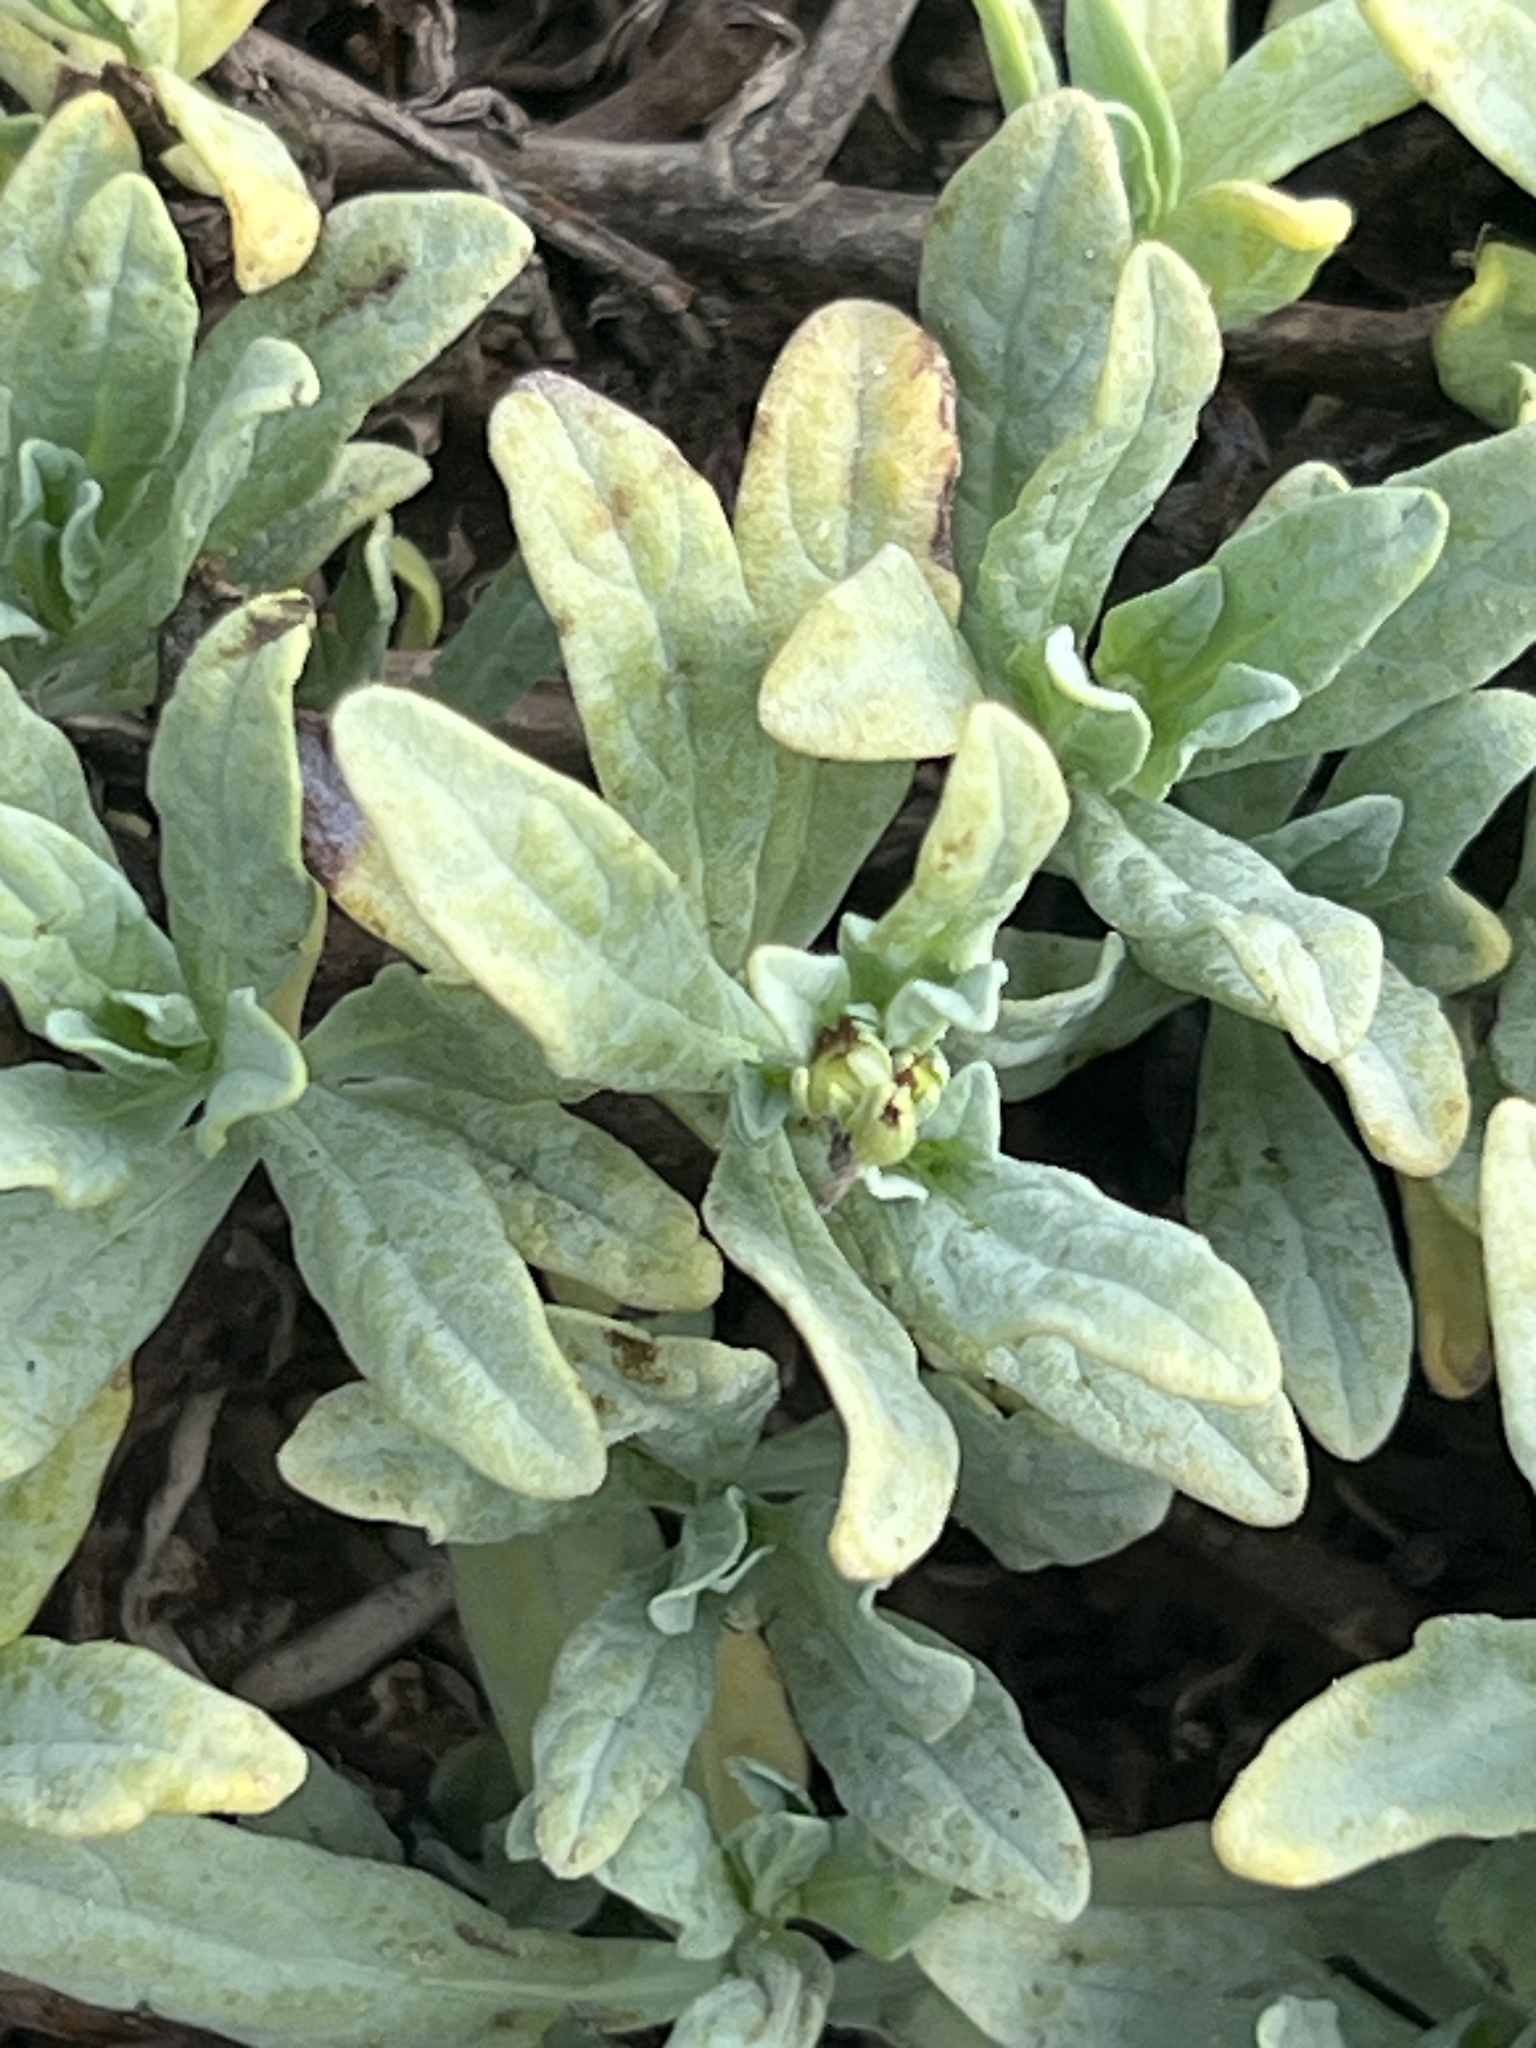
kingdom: Plantae
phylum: Tracheophyta
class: Magnoliopsida
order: Boraginales
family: Heliotropiaceae
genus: Heliotropium
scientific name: Heliotropium curassavicum
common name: Seaside heliotrope
